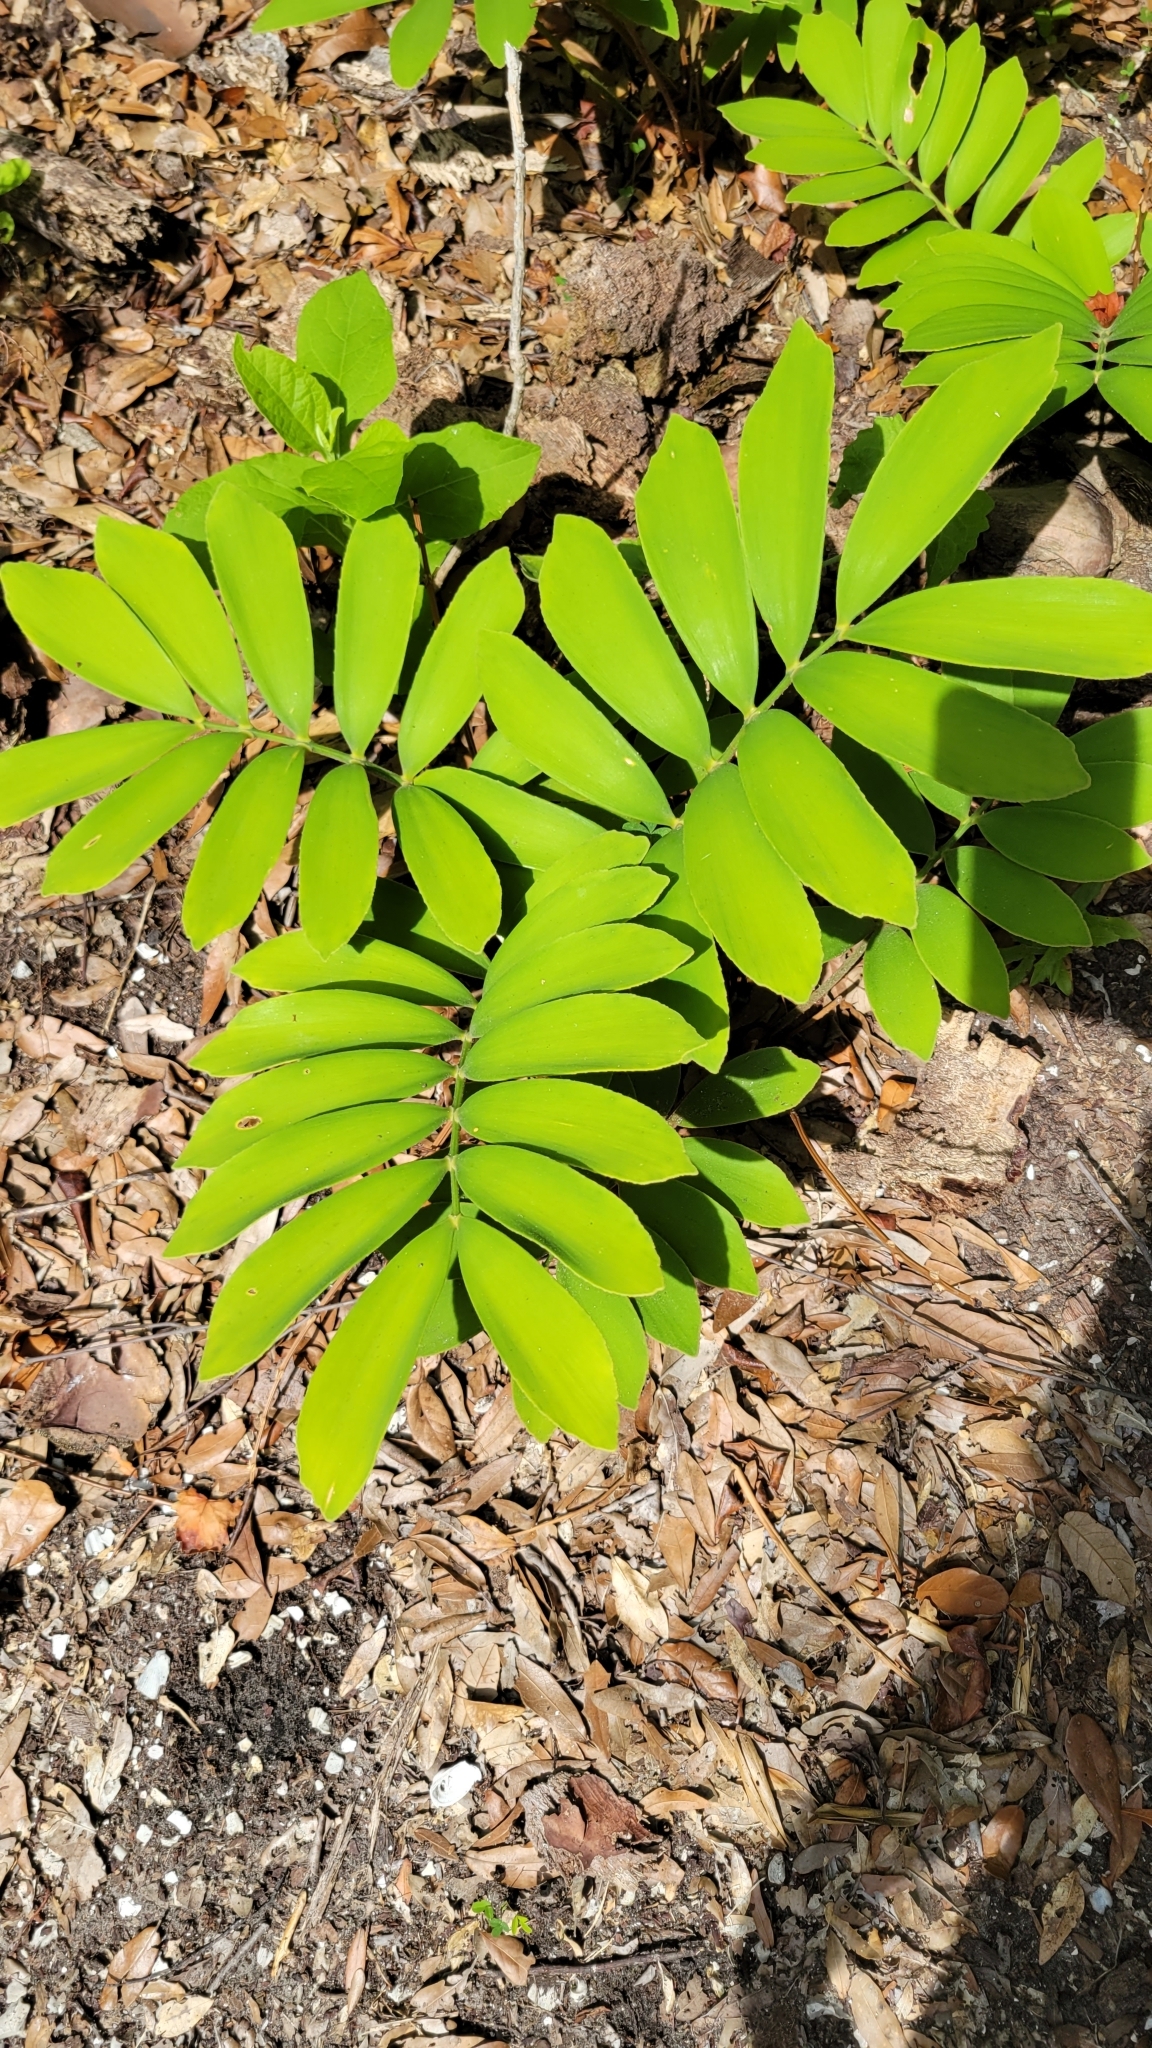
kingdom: Plantae
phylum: Tracheophyta
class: Cycadopsida
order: Cycadales
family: Zamiaceae
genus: Zamia
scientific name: Zamia furfuracea
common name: Cardboard palm
